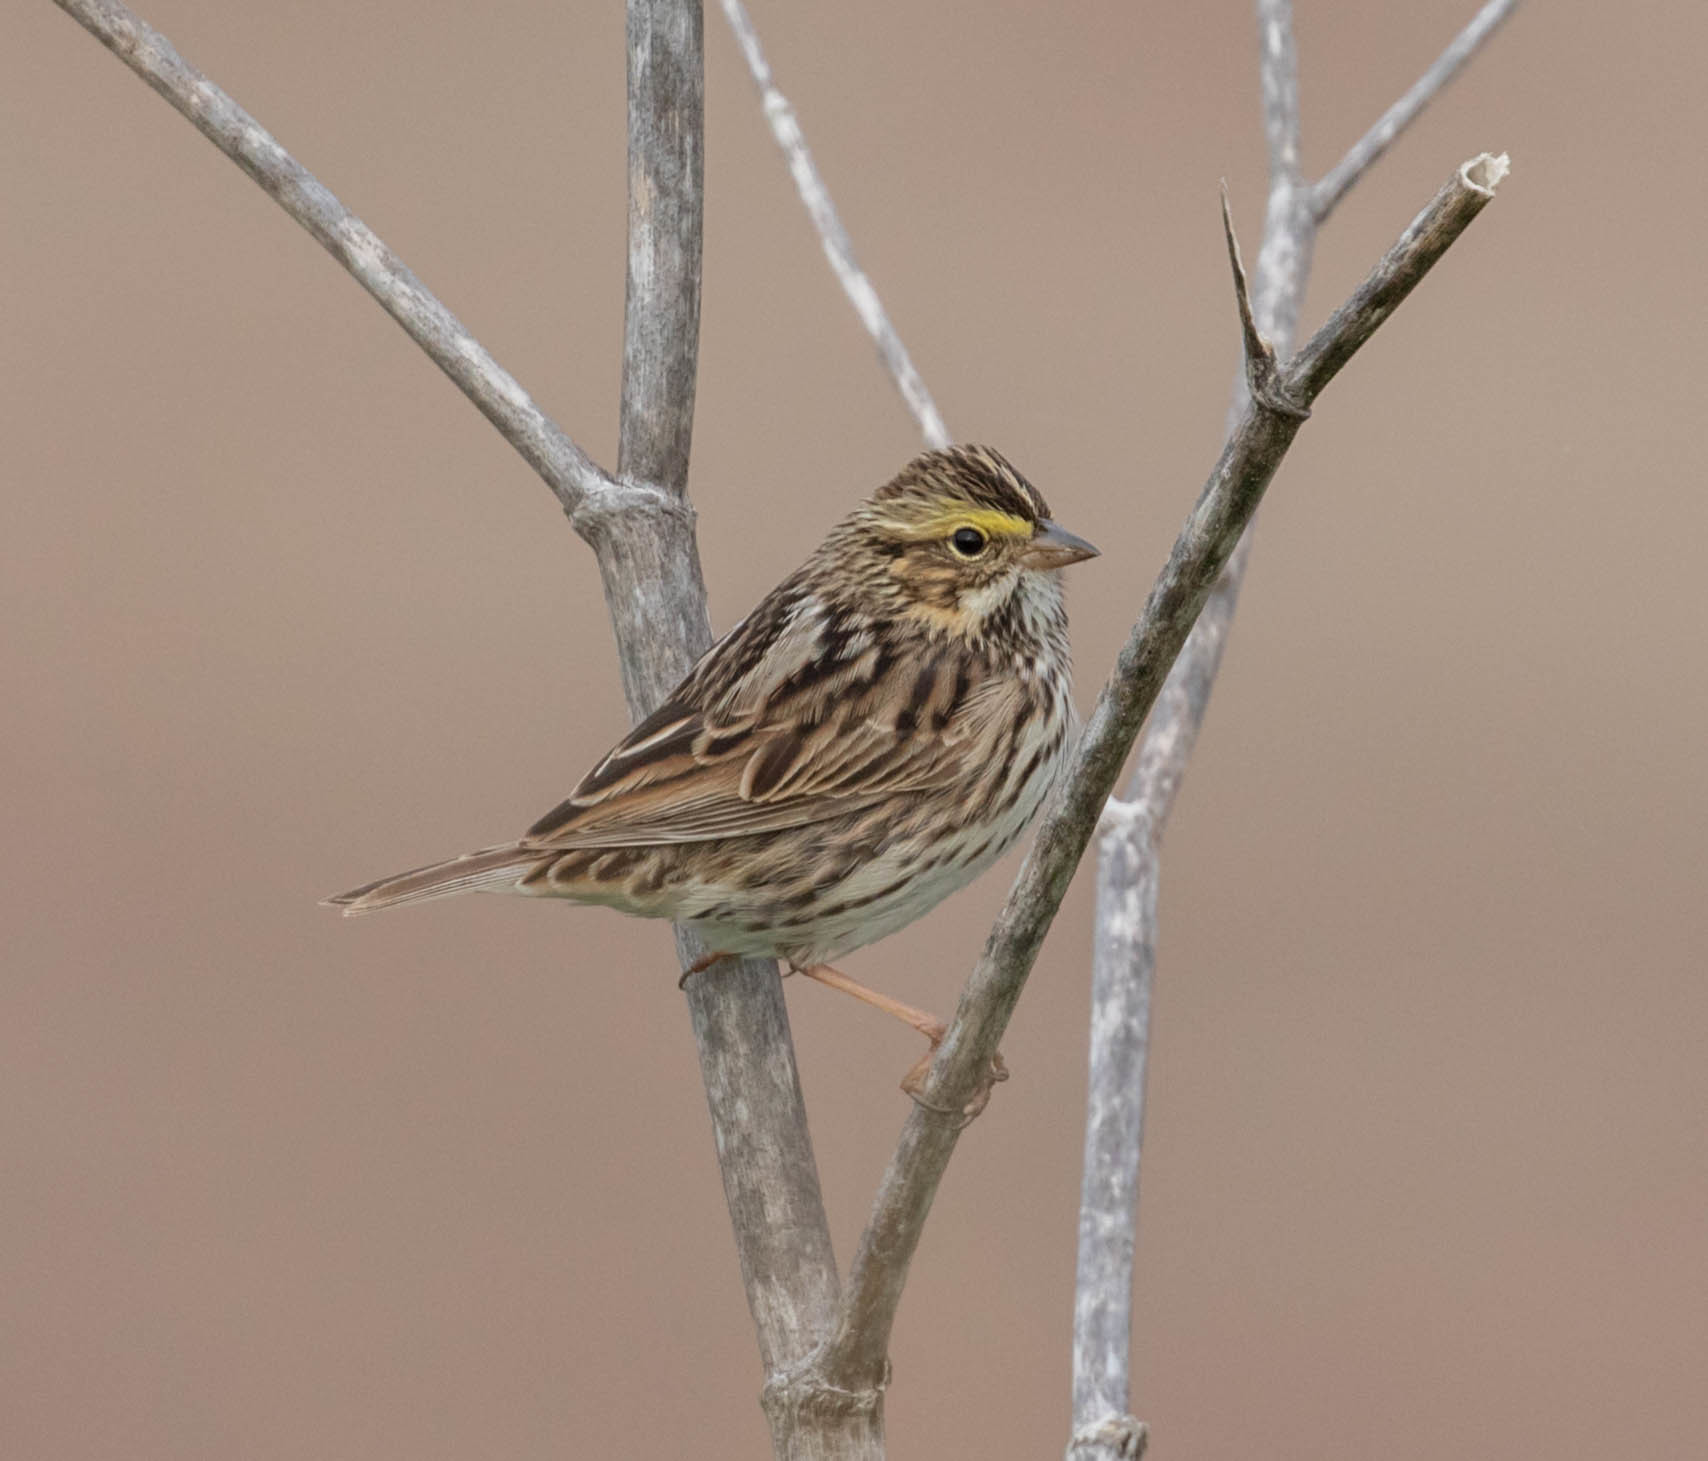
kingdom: Animalia
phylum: Chordata
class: Aves
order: Passeriformes
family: Passerellidae
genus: Passerculus
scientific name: Passerculus sandwichensis
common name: Savannah sparrow
